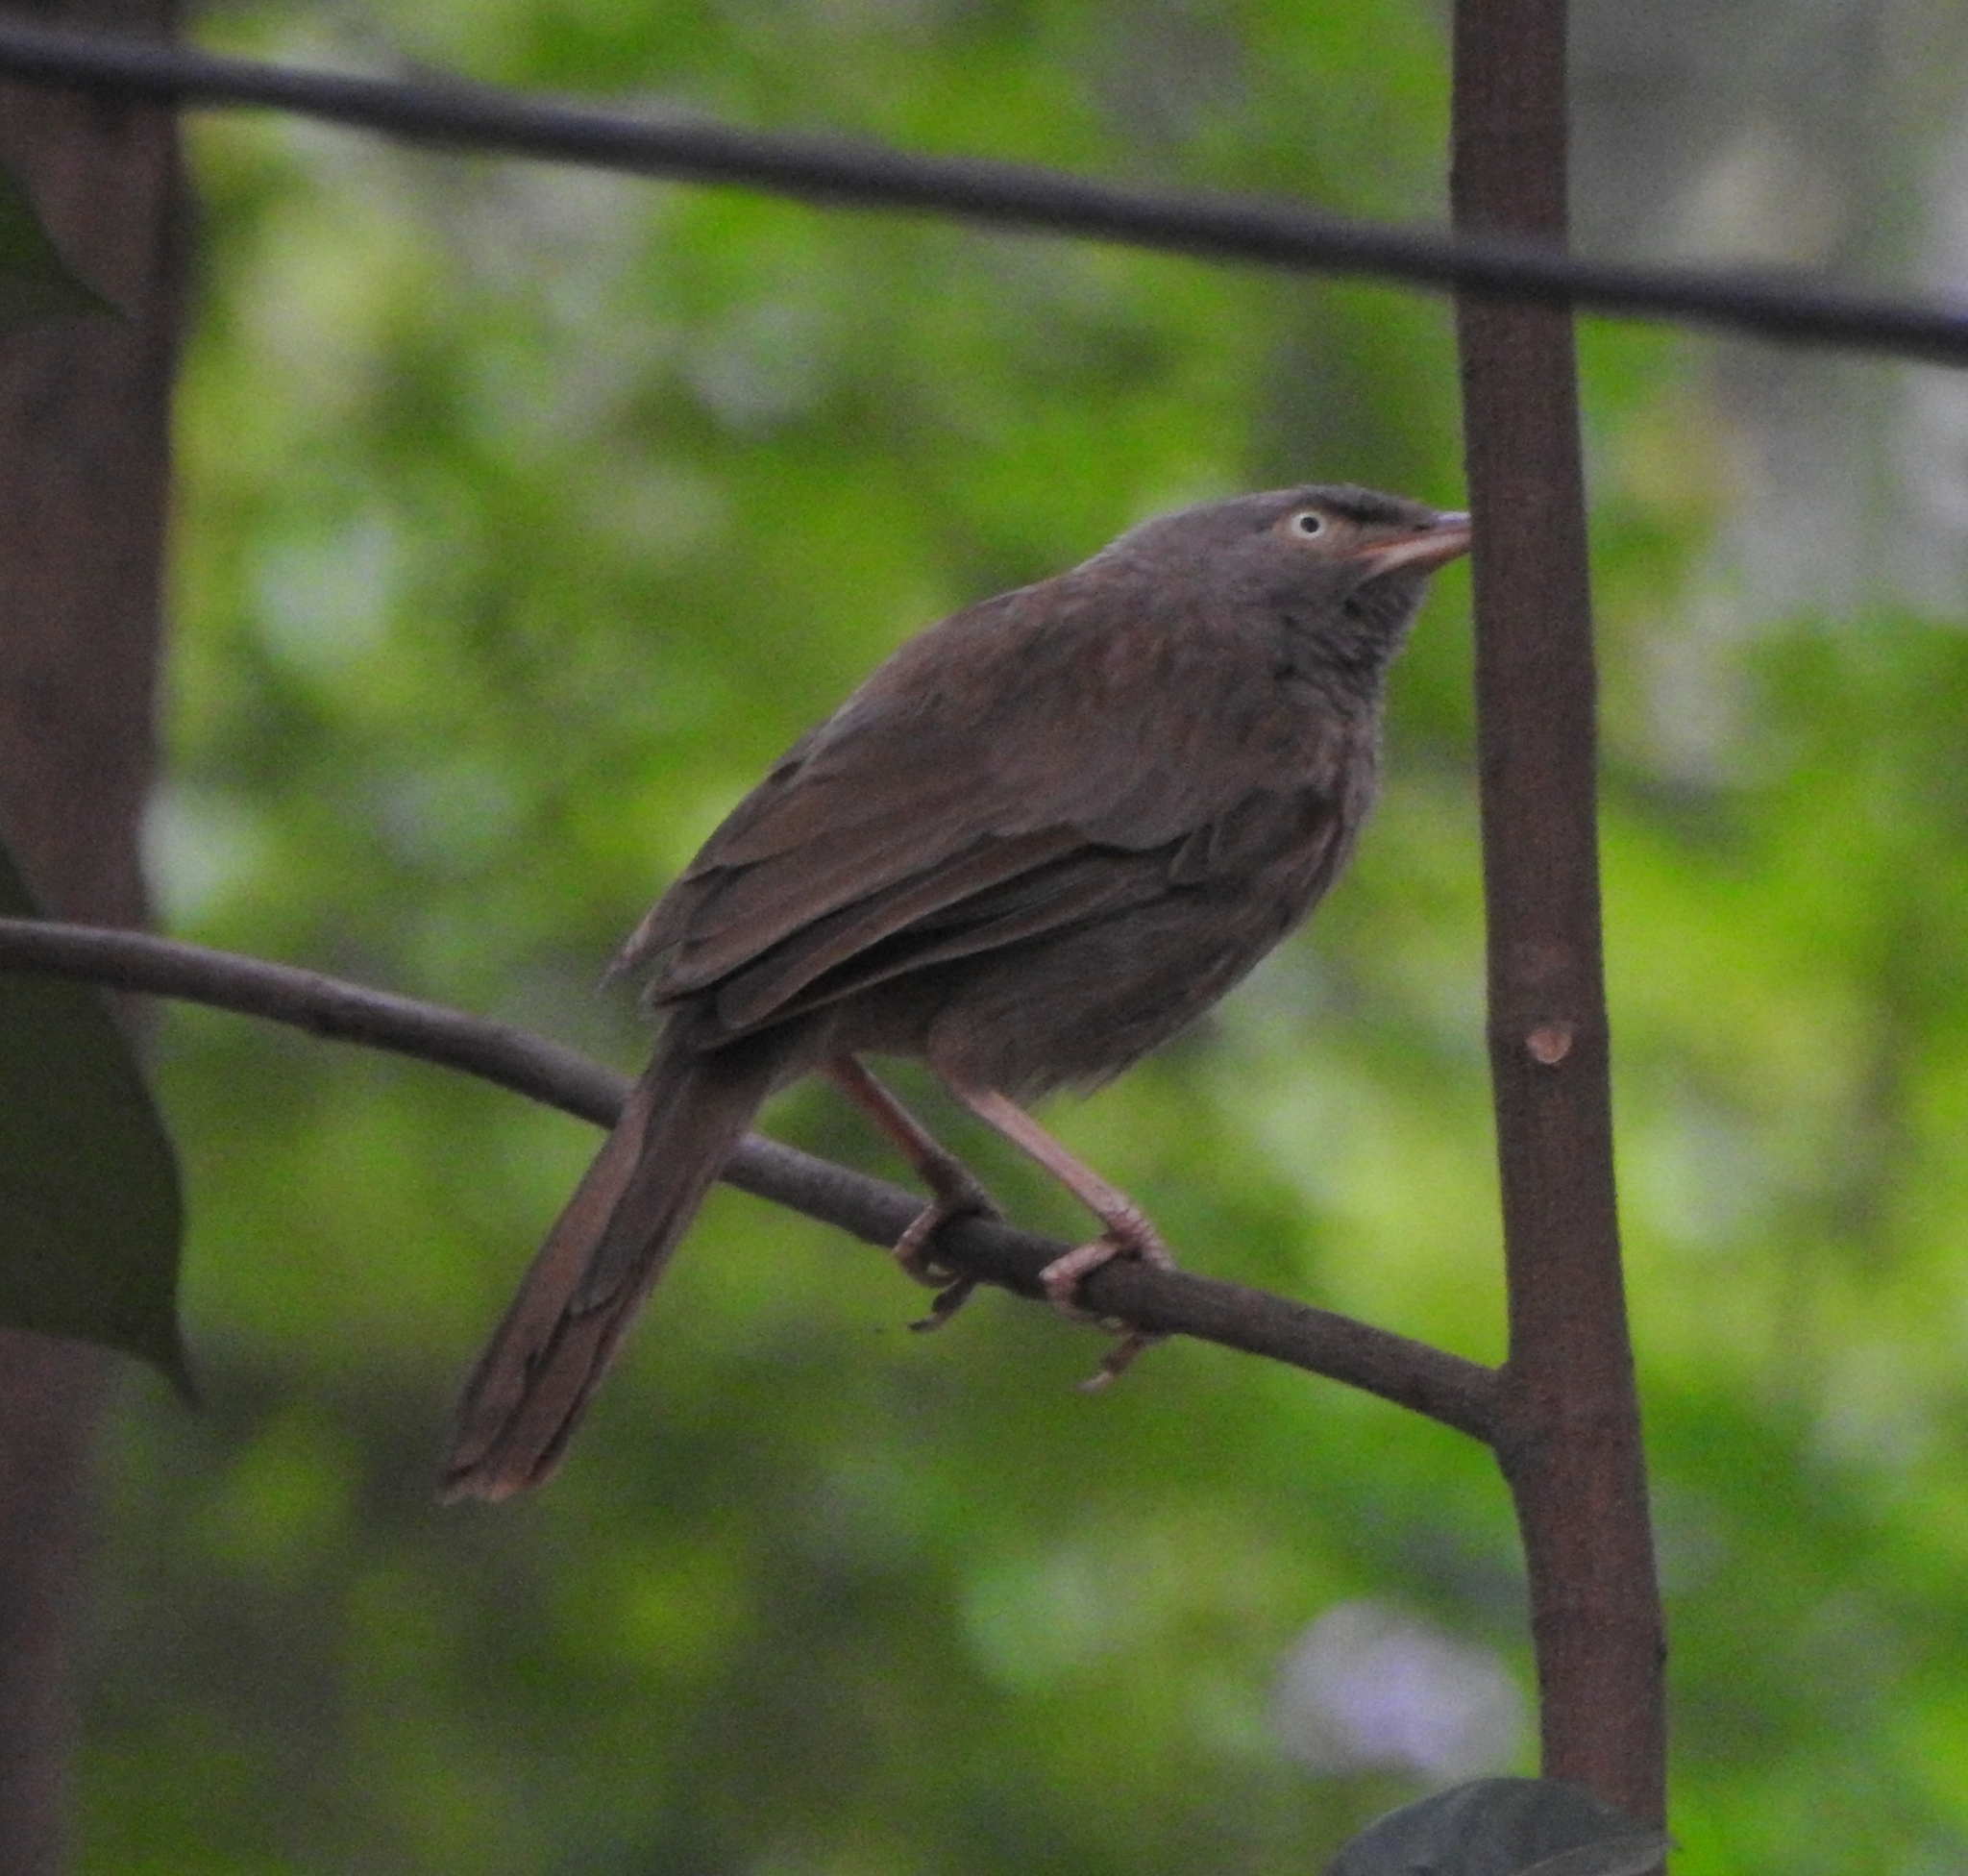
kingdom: Animalia
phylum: Chordata
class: Aves
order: Passeriformes
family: Leiothrichidae
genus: Turdoides
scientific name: Turdoides striata
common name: Jungle babbler
